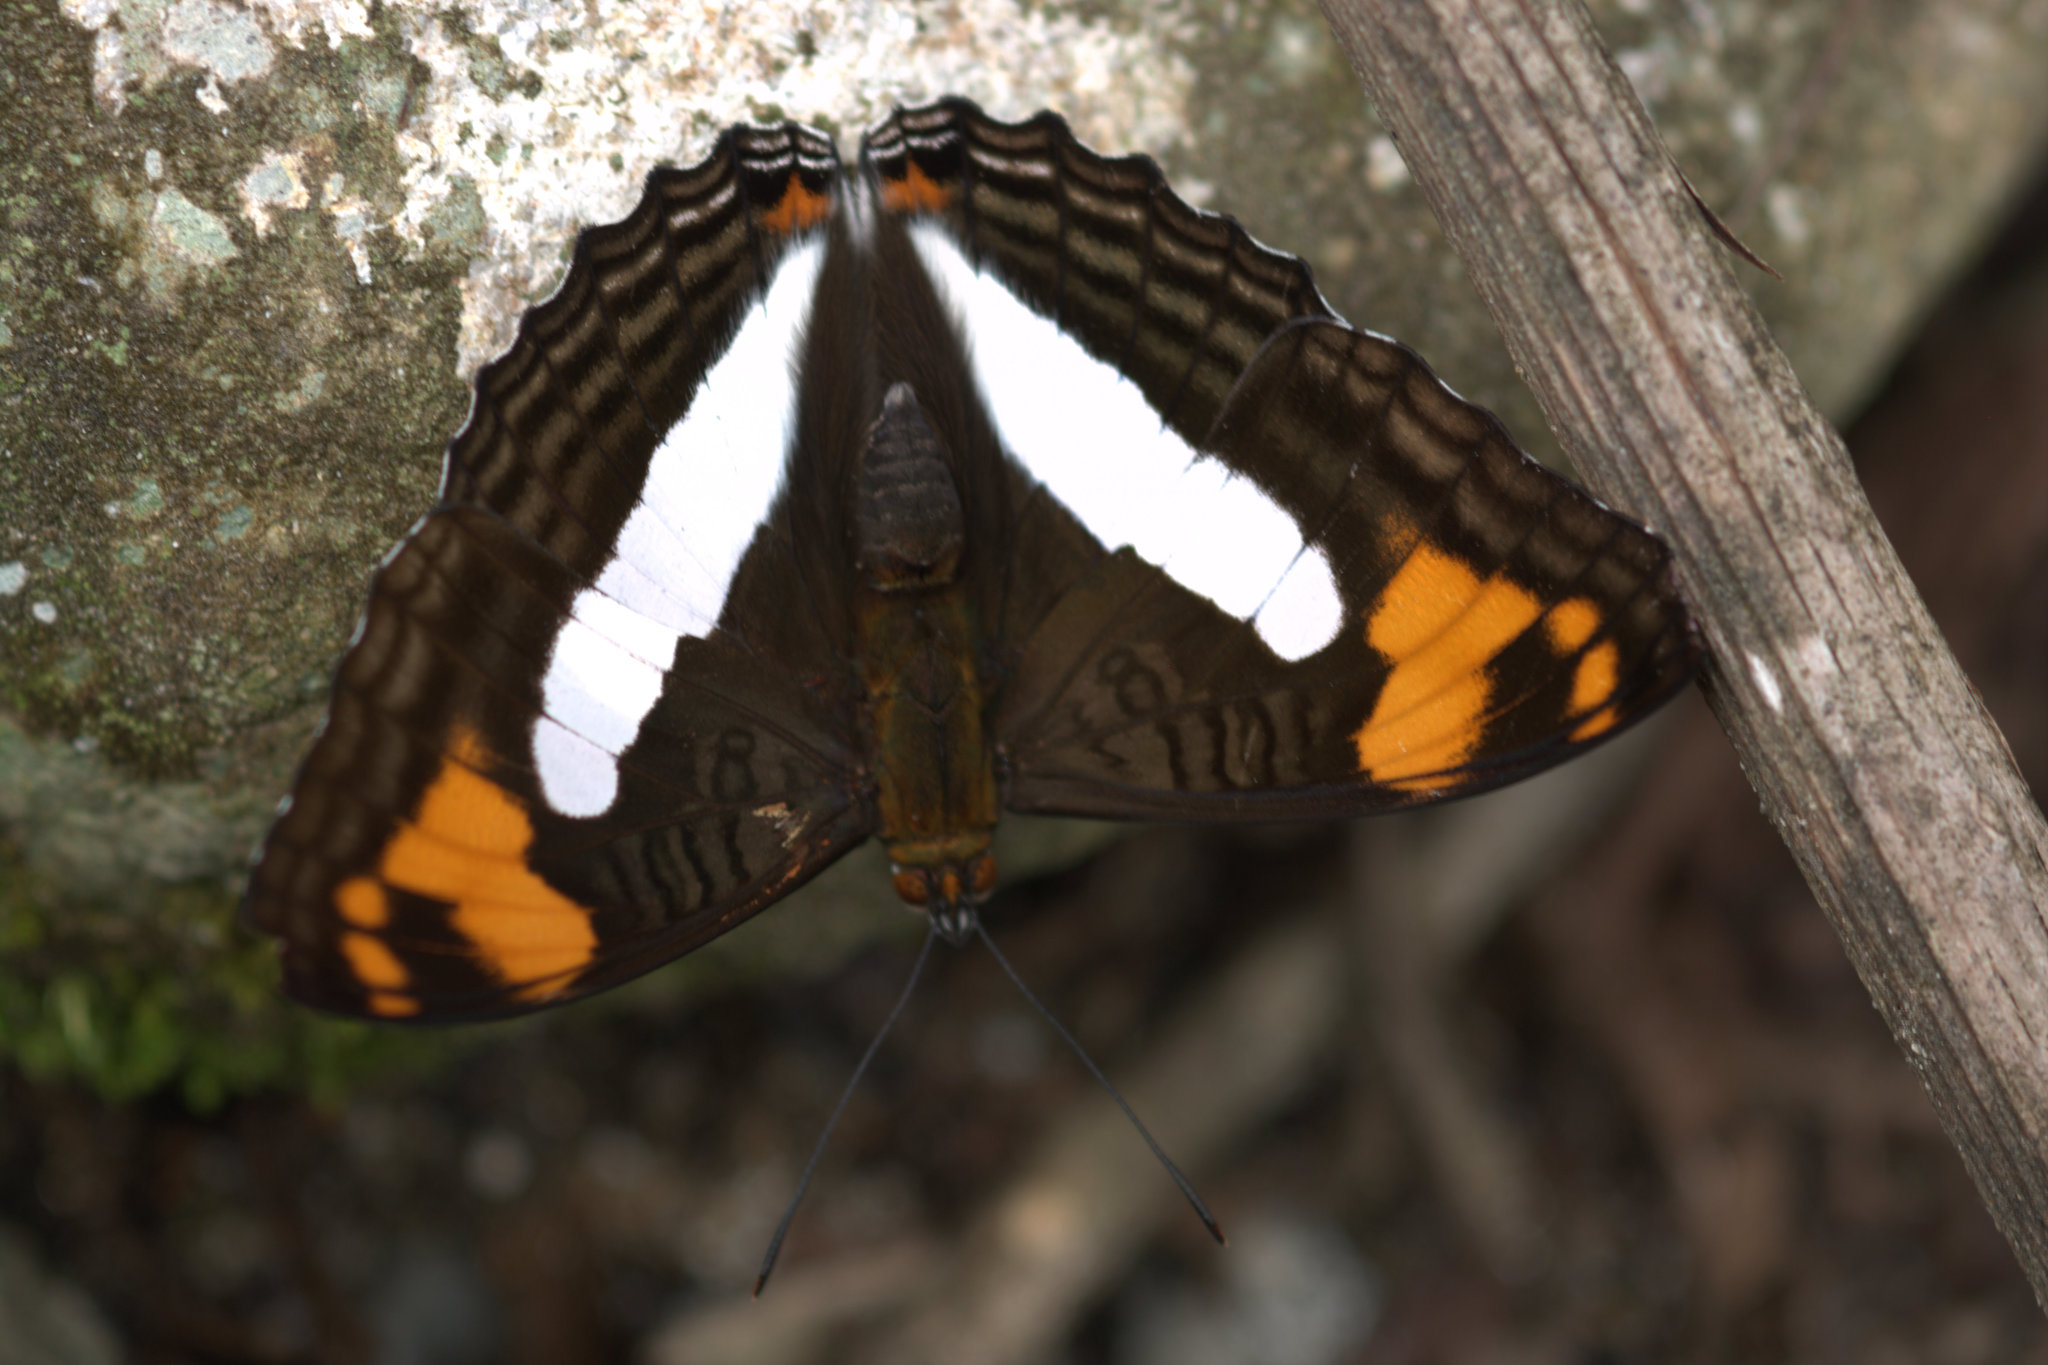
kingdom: Animalia
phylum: Arthropoda
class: Insecta
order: Lepidoptera
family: Nymphalidae
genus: Limenitis
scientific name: Limenitis Adelpha erotia
